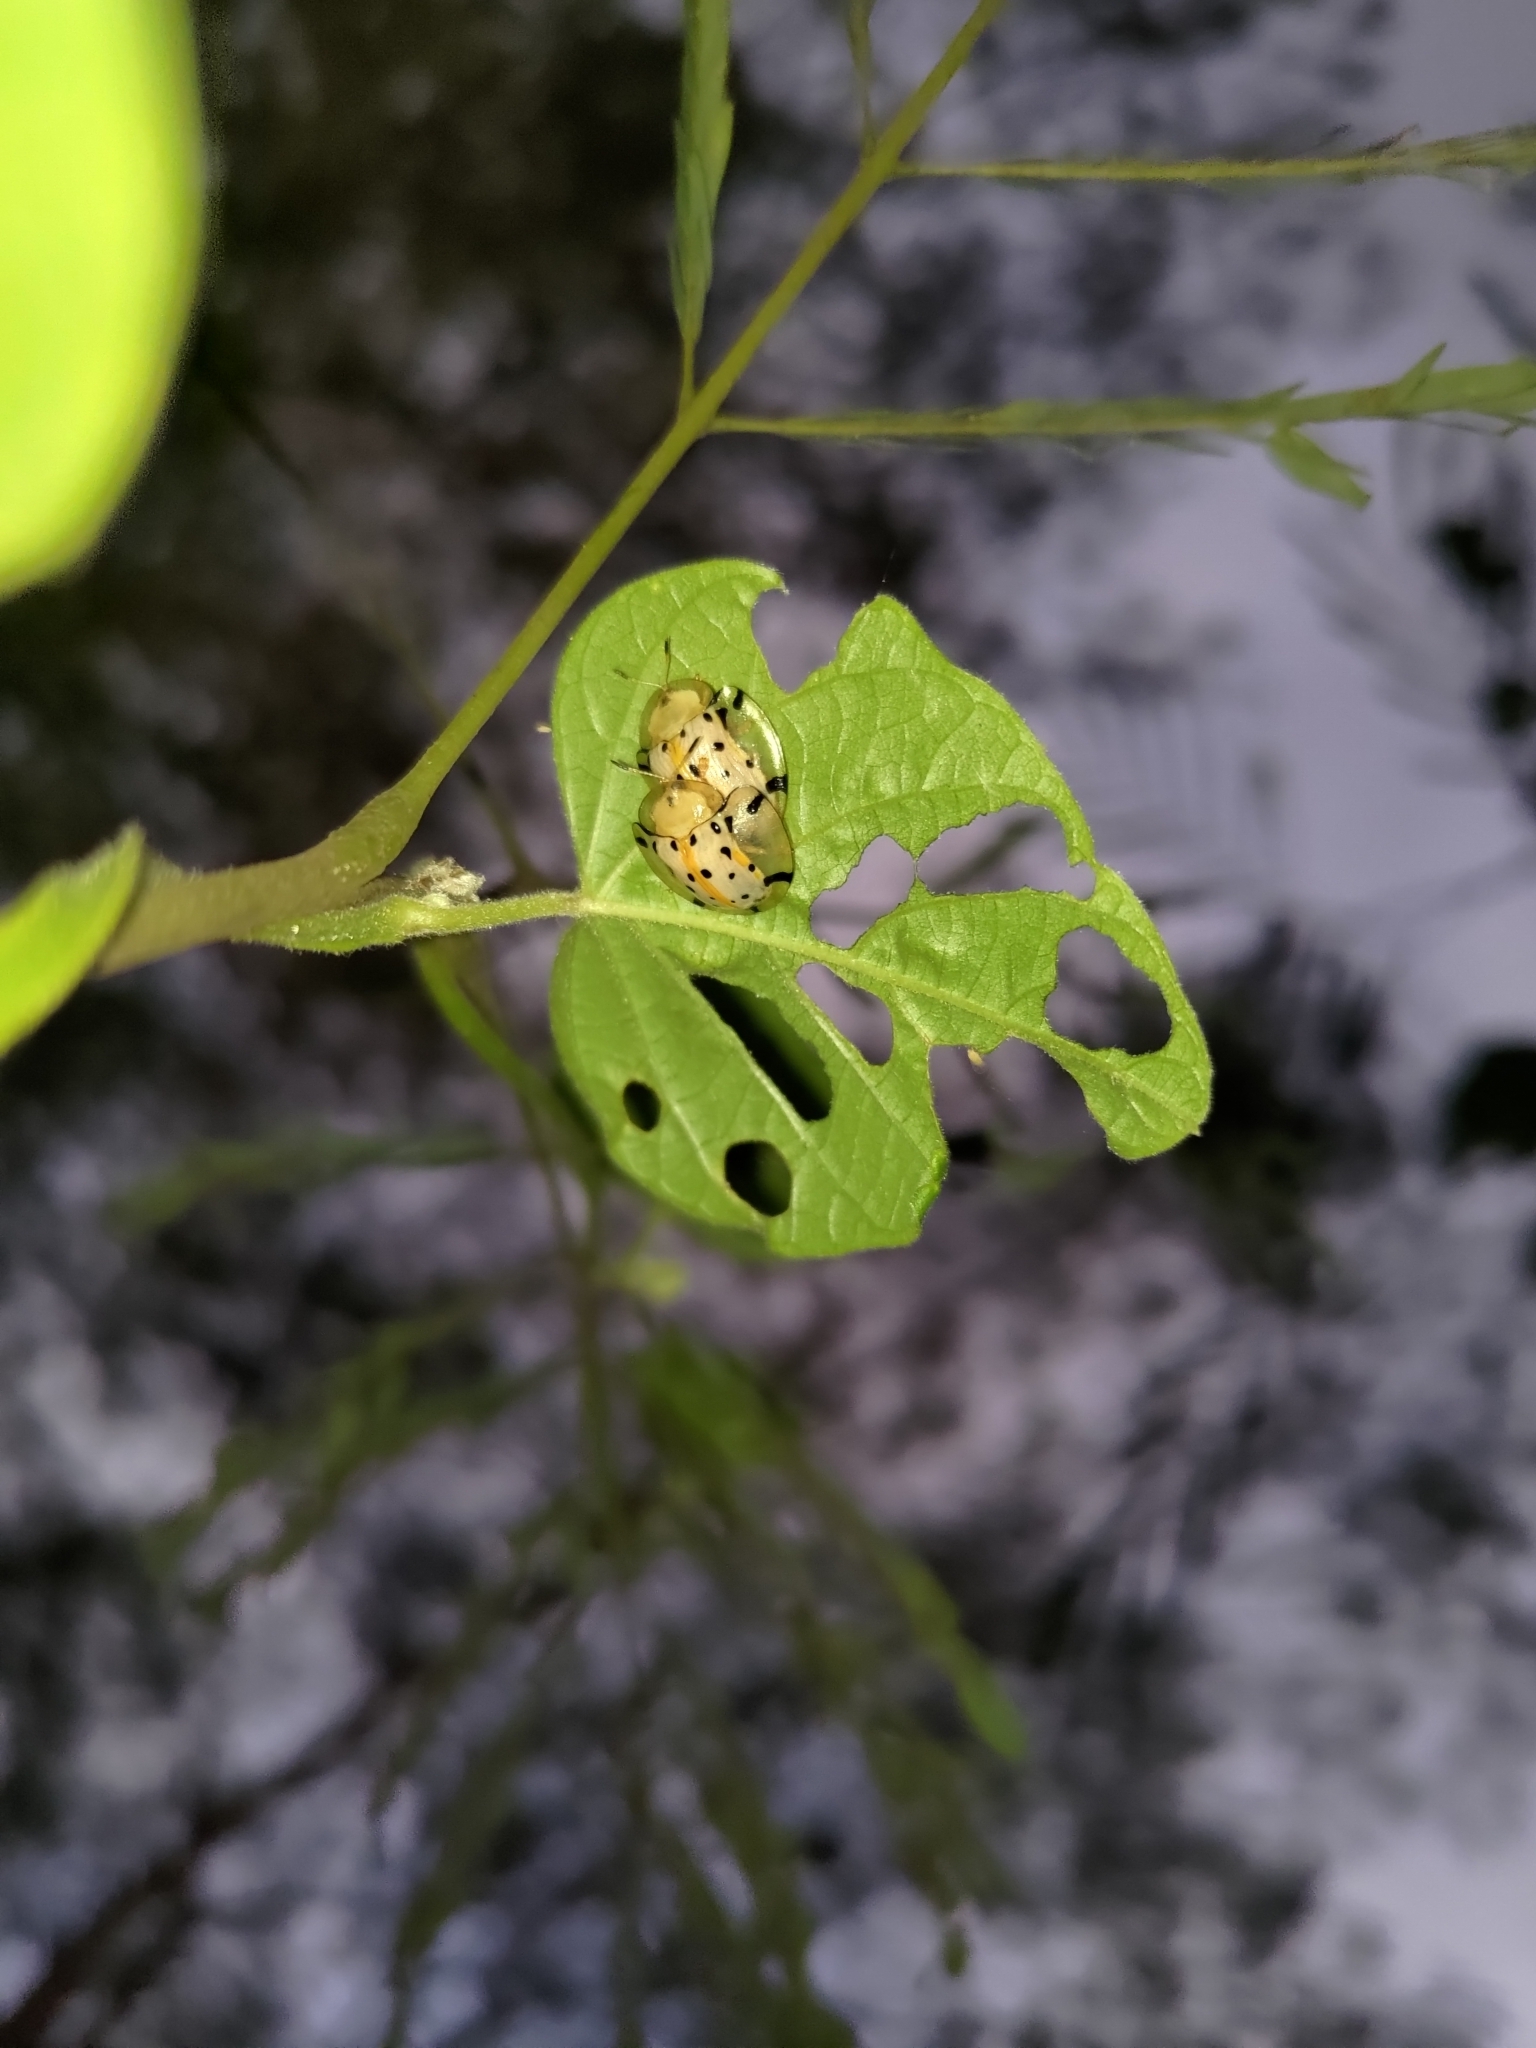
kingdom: Animalia
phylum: Arthropoda
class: Insecta
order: Coleoptera
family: Chrysomelidae
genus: Aspidimorpha
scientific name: Aspidimorpha miliaris
